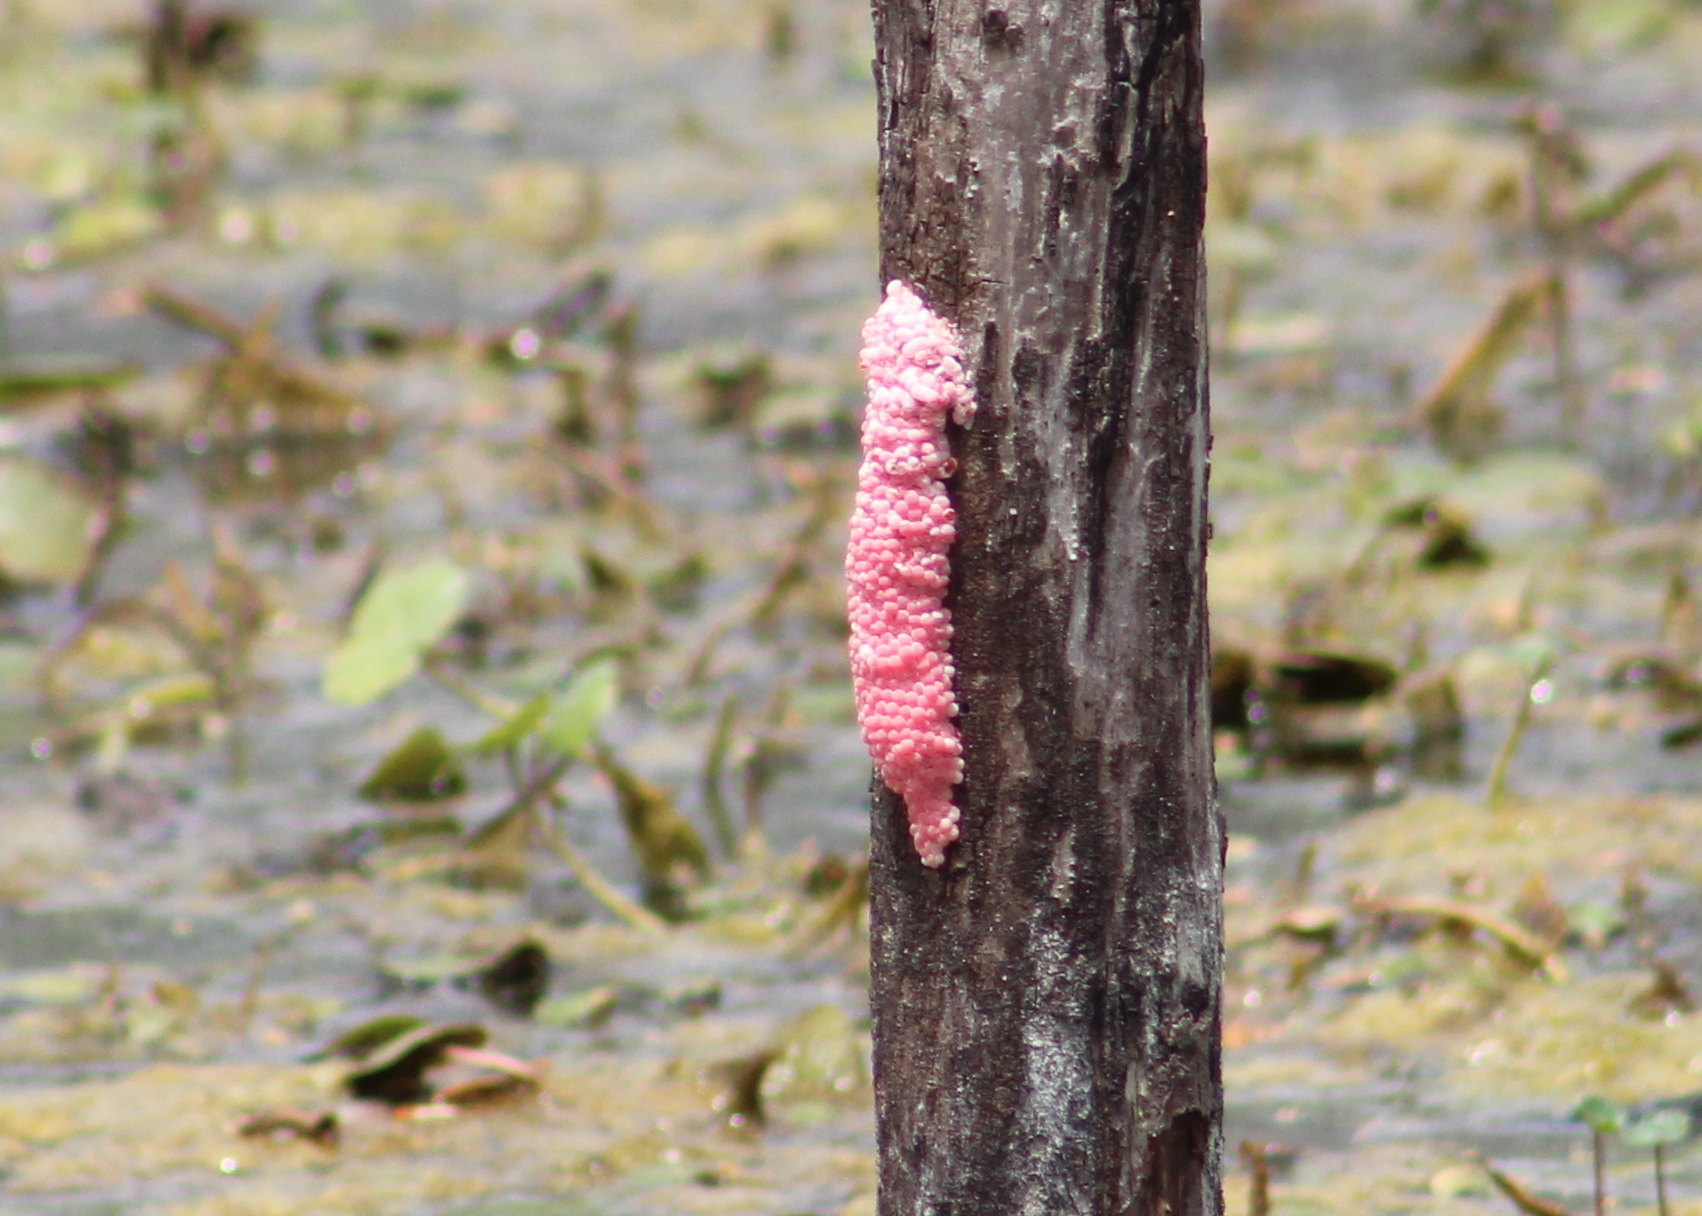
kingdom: Animalia
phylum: Mollusca
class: Gastropoda
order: Architaenioglossa
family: Ampullariidae
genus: Pomacea
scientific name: Pomacea maculata
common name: Giant applesnail
